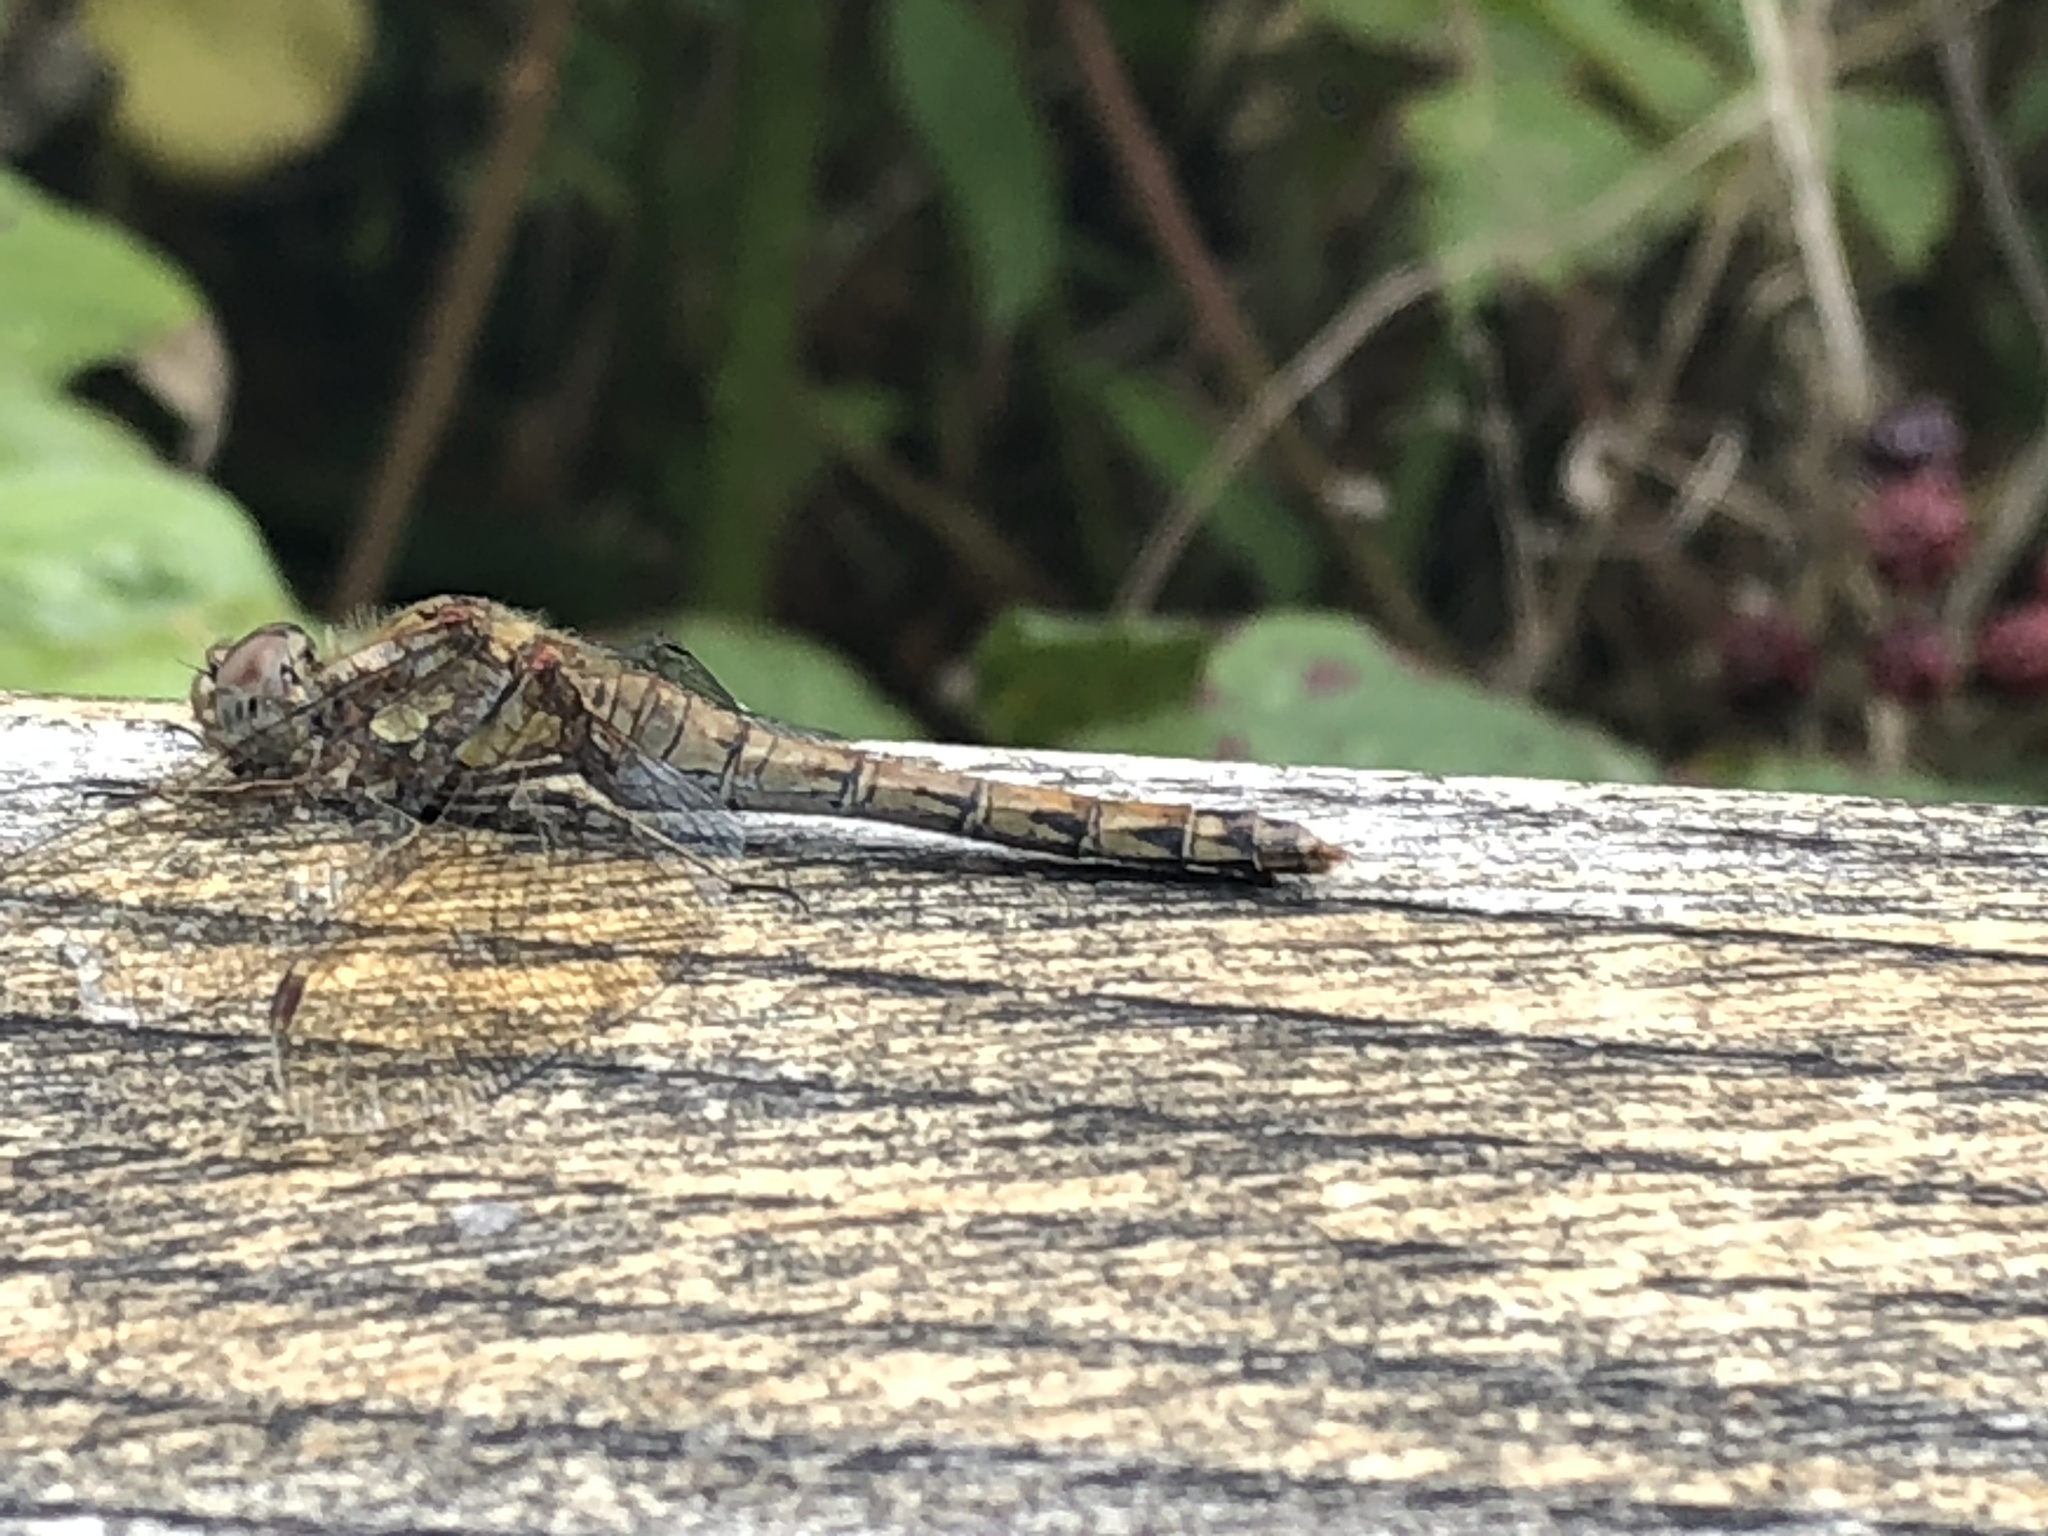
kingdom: Animalia
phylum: Arthropoda
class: Insecta
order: Odonata
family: Libellulidae
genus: Sympetrum
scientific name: Sympetrum striolatum
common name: Common darter
